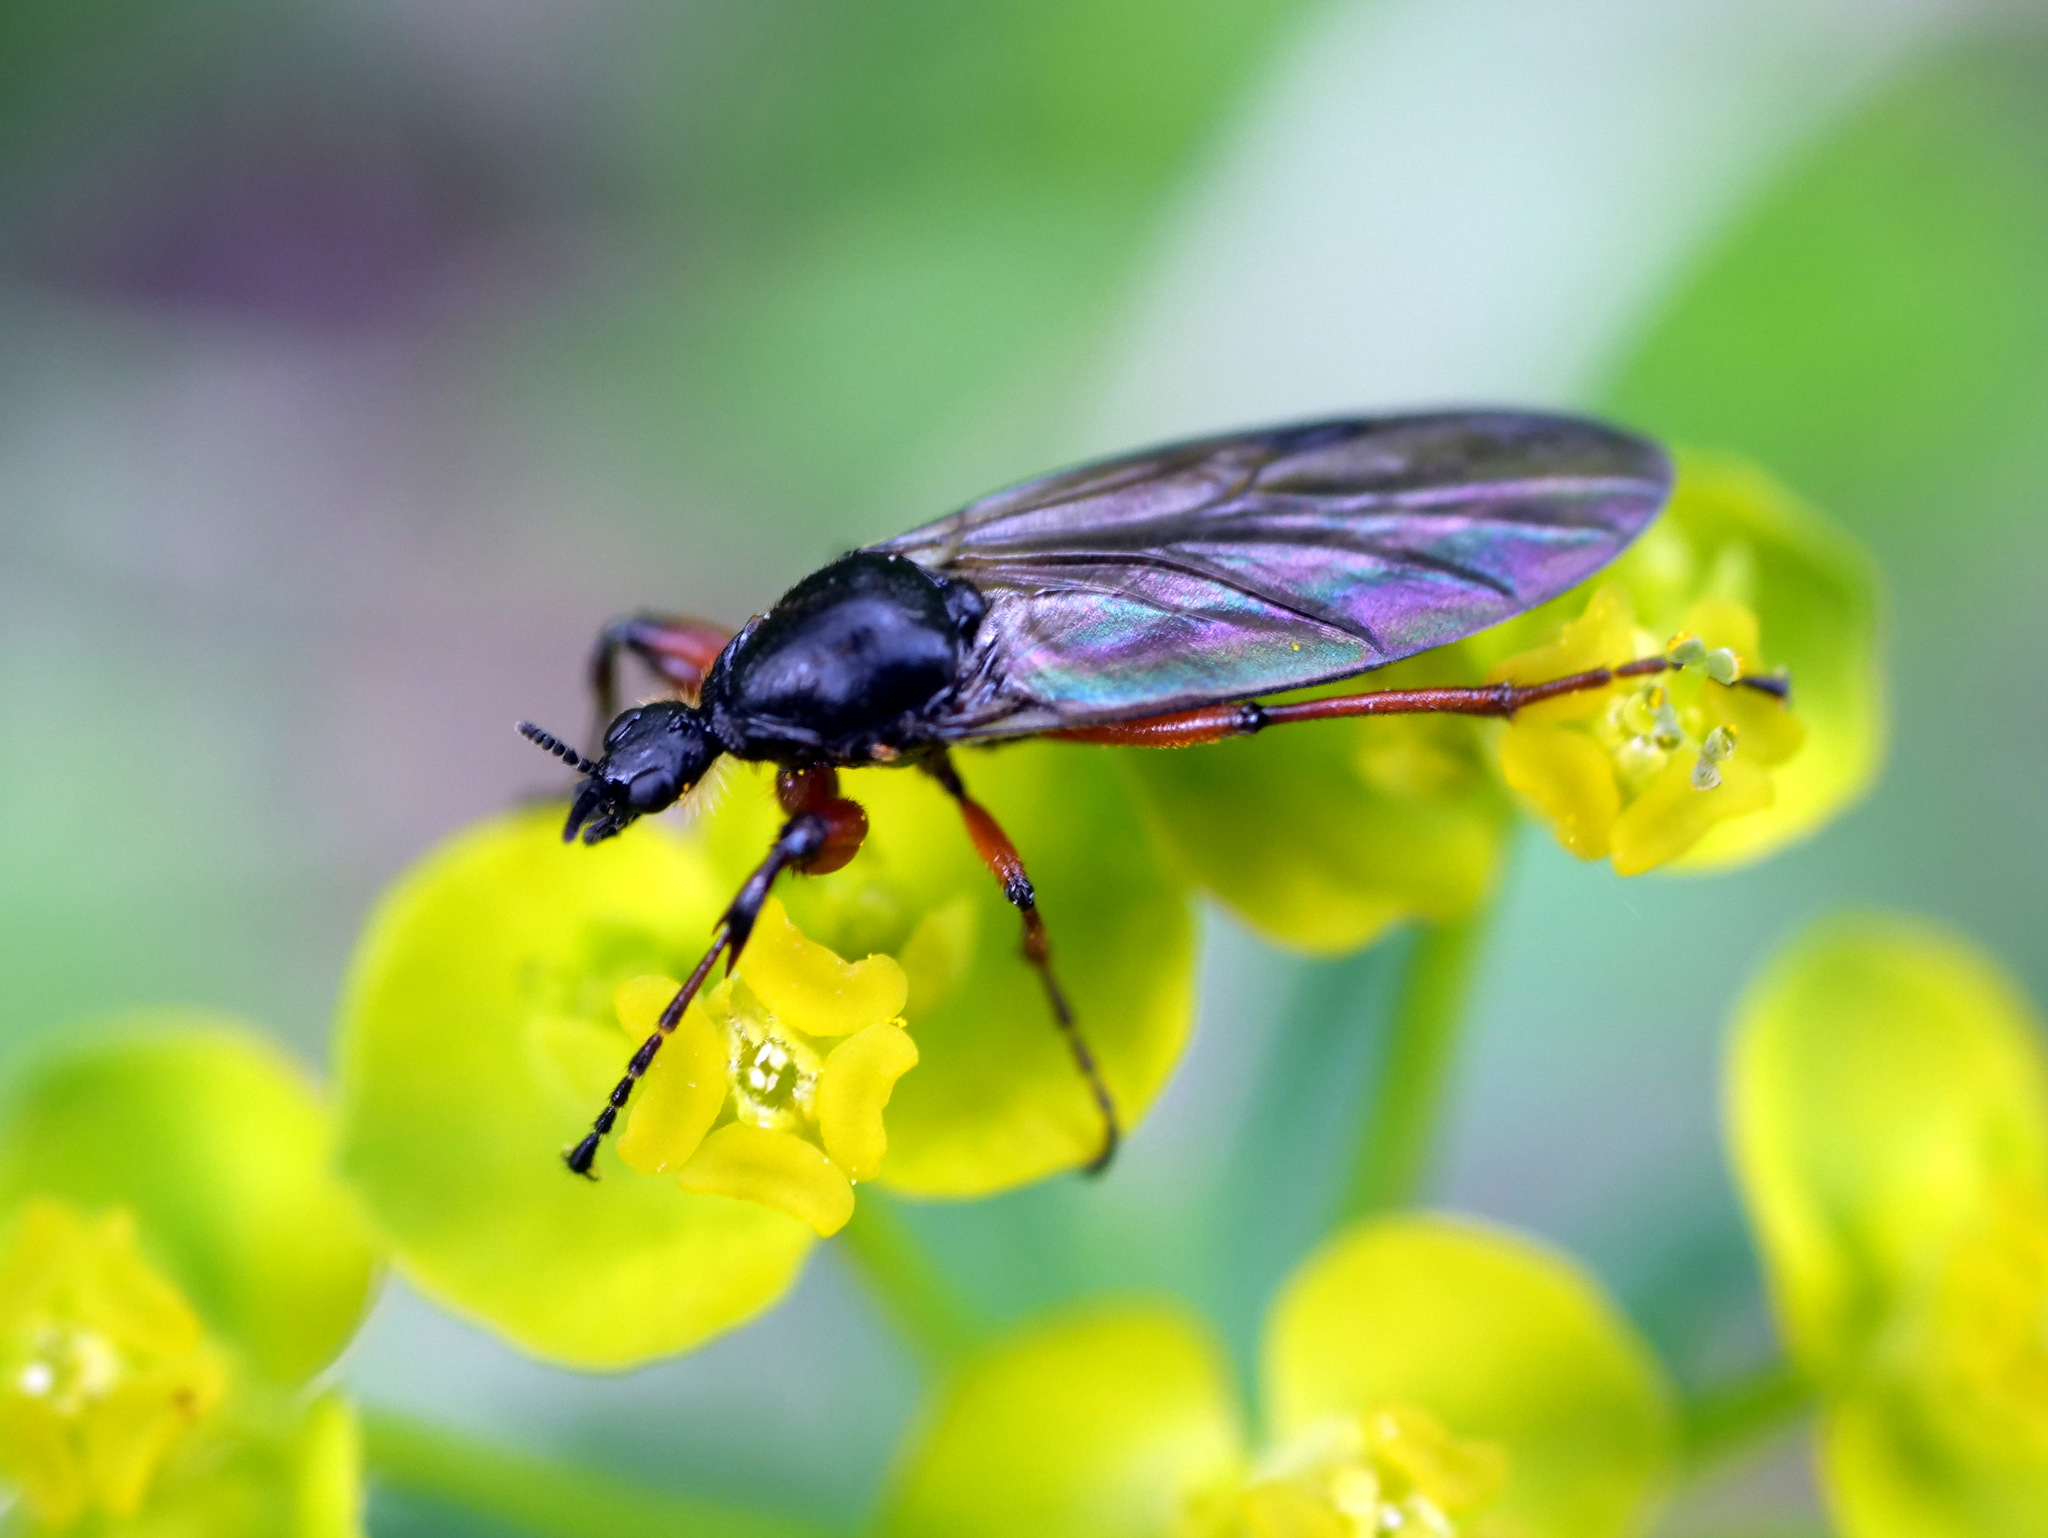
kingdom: Animalia
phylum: Arthropoda
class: Insecta
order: Diptera
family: Bibionidae
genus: Bibio
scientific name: Bibio
